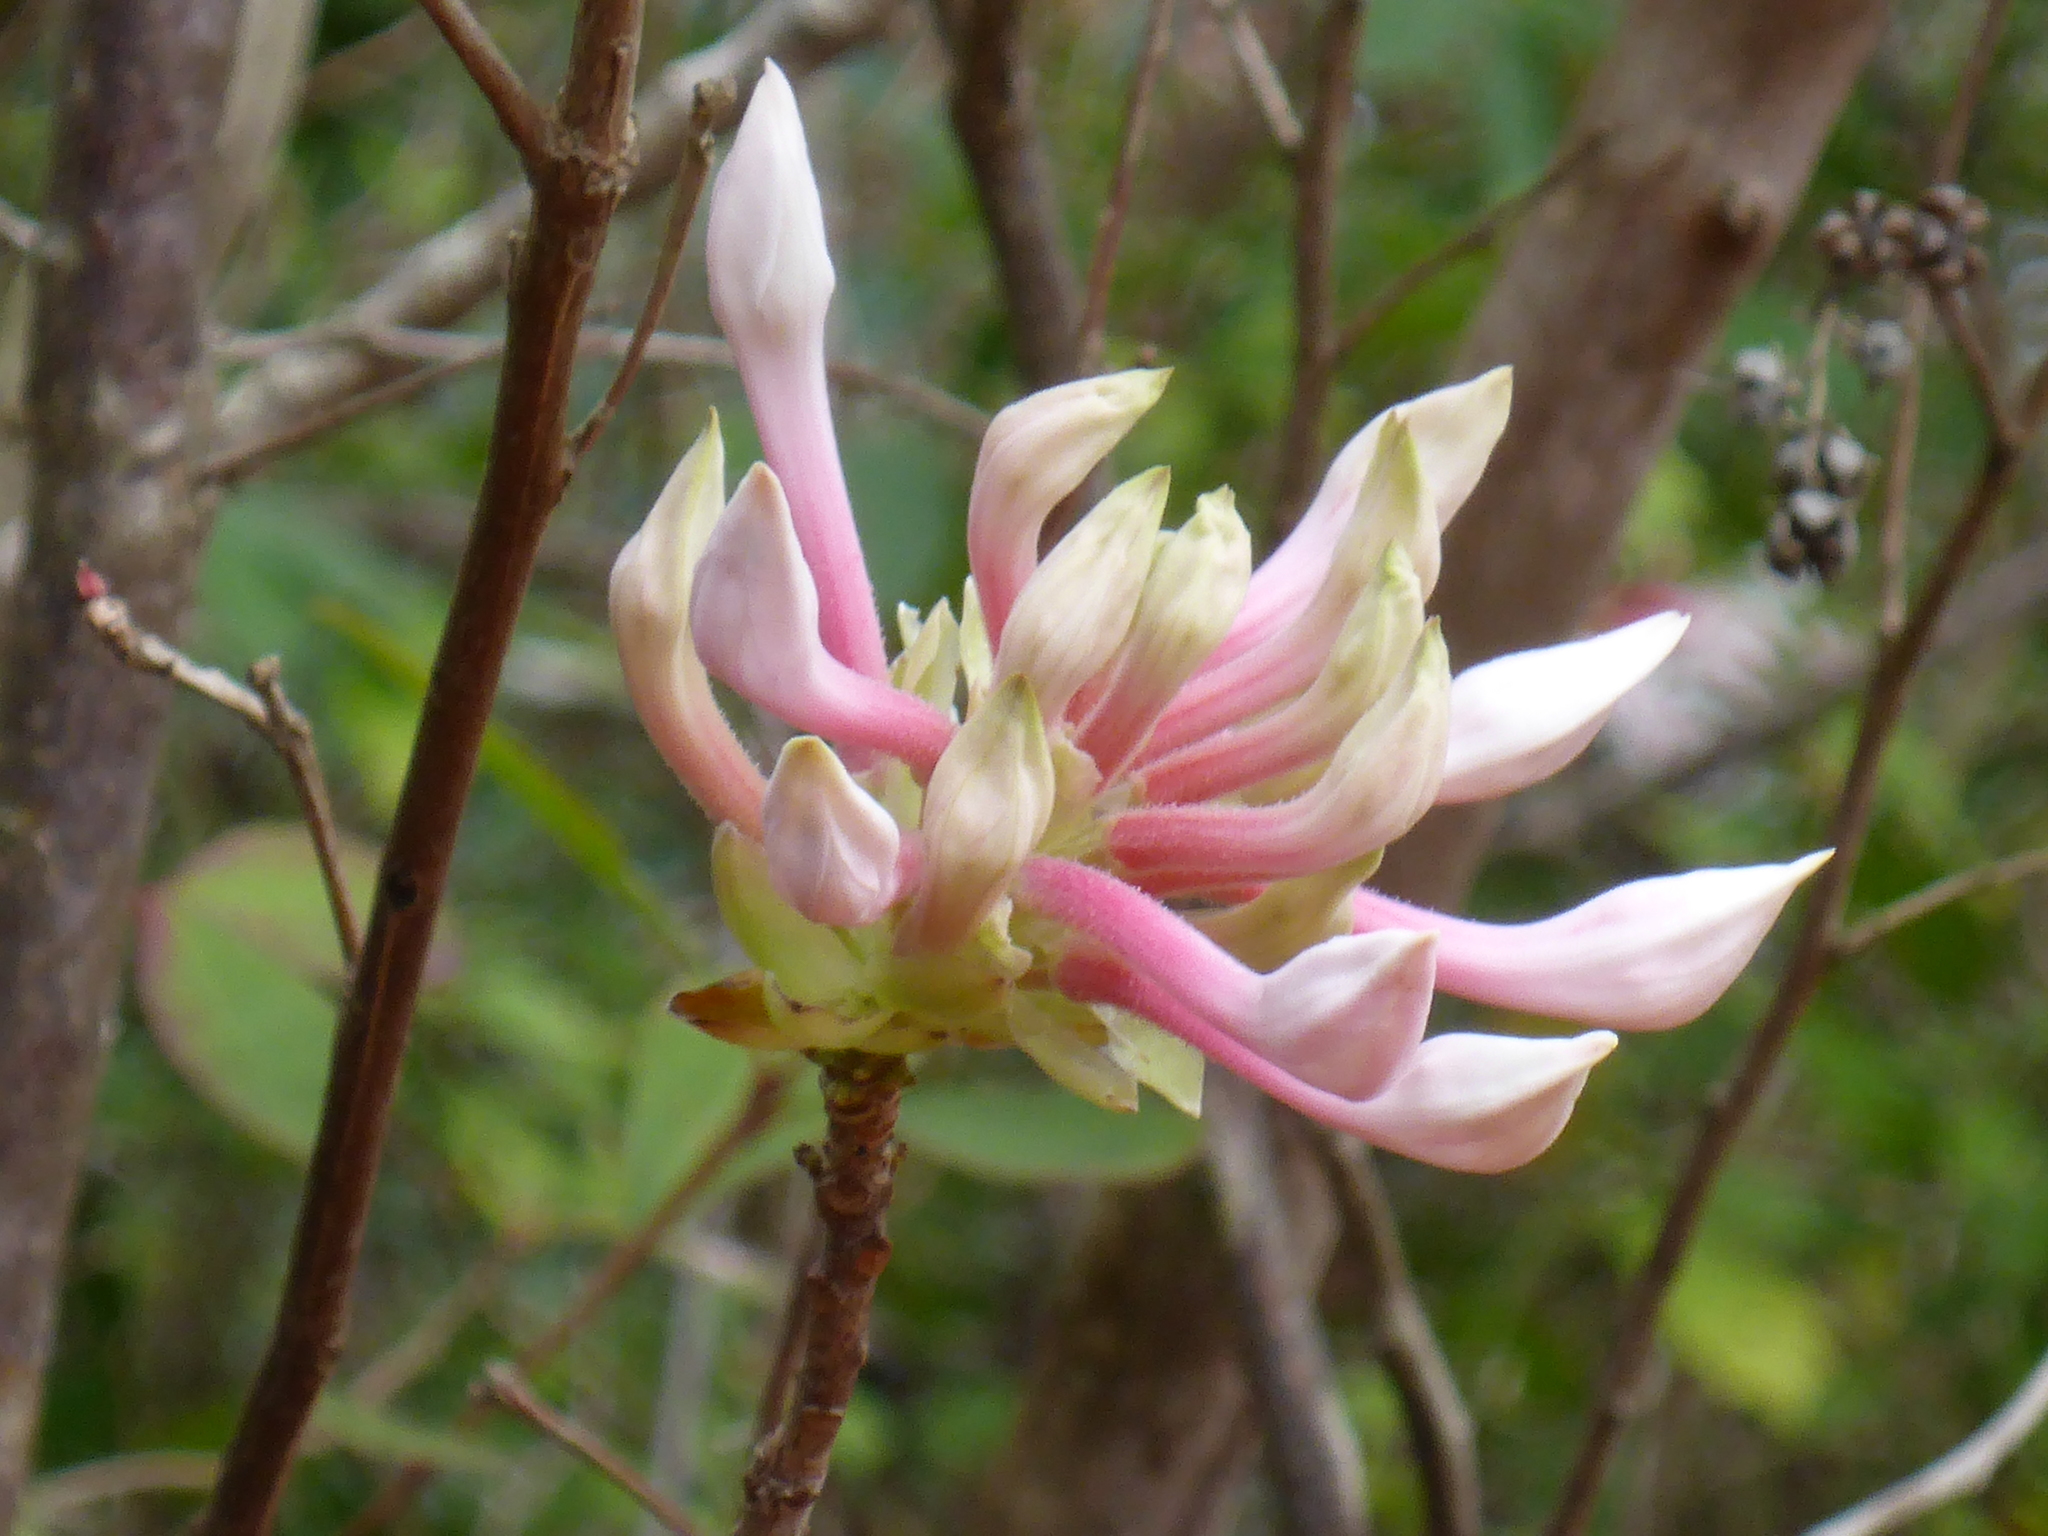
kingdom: Plantae
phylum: Tracheophyta
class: Magnoliopsida
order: Ericales
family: Ericaceae
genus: Rhododendron
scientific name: Rhododendron canescens
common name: Mountain azalea
